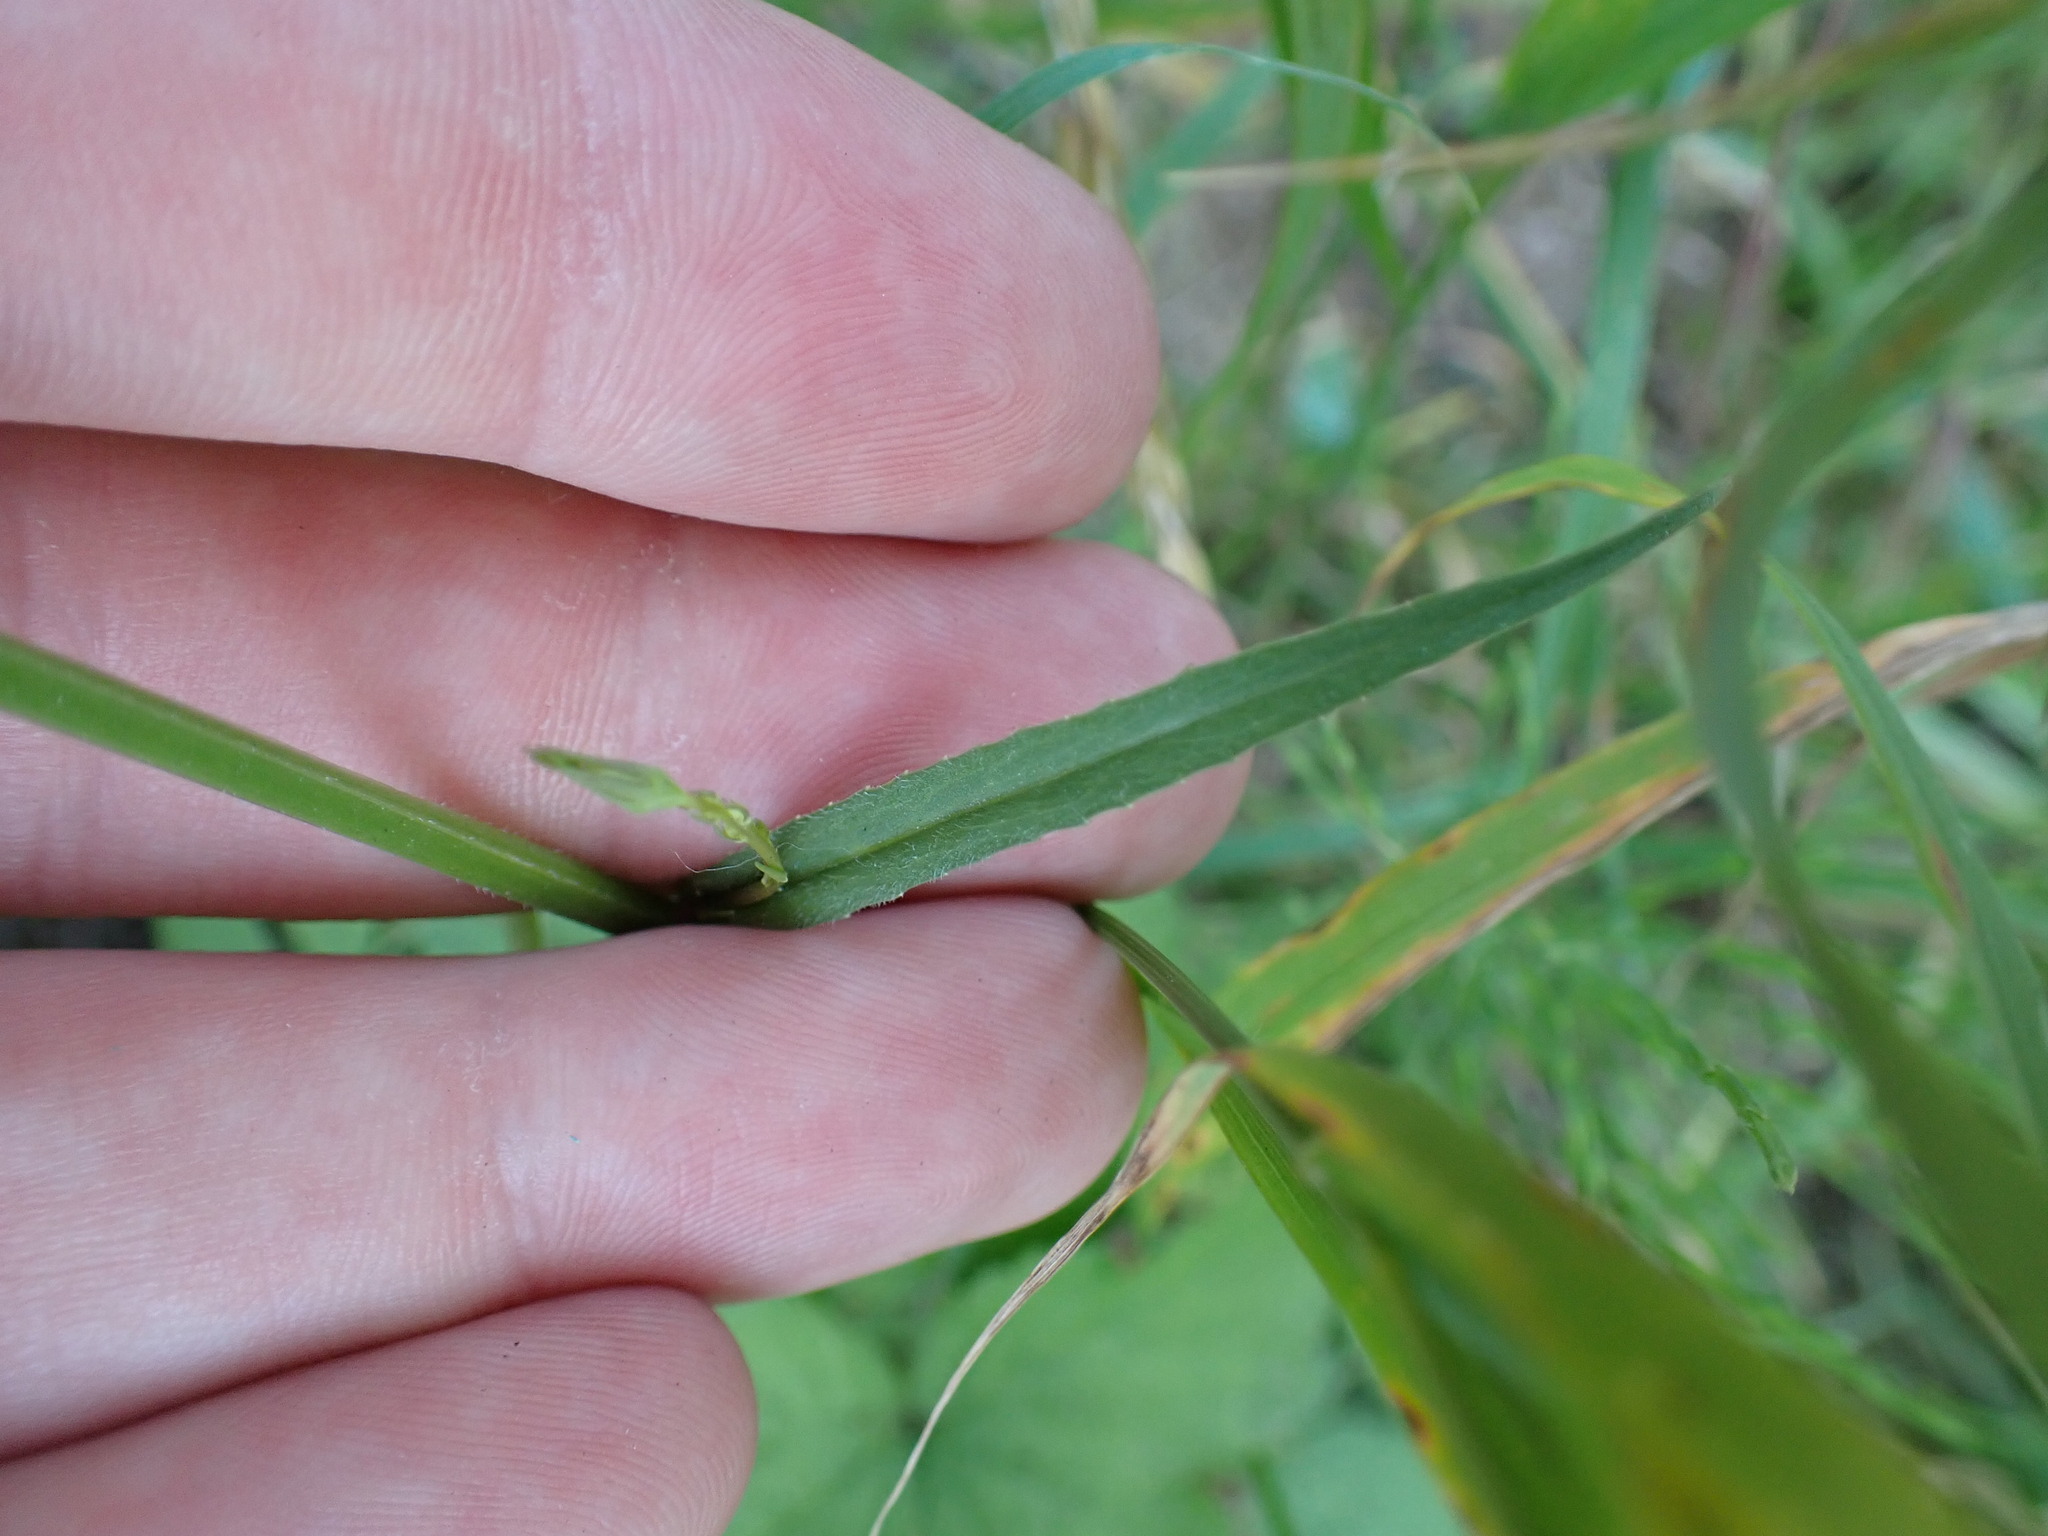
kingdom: Plantae
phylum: Tracheophyta
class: Magnoliopsida
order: Asterales
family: Campanulaceae
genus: Campanula
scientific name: Campanula rapunculus
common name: Rampion bellflower
